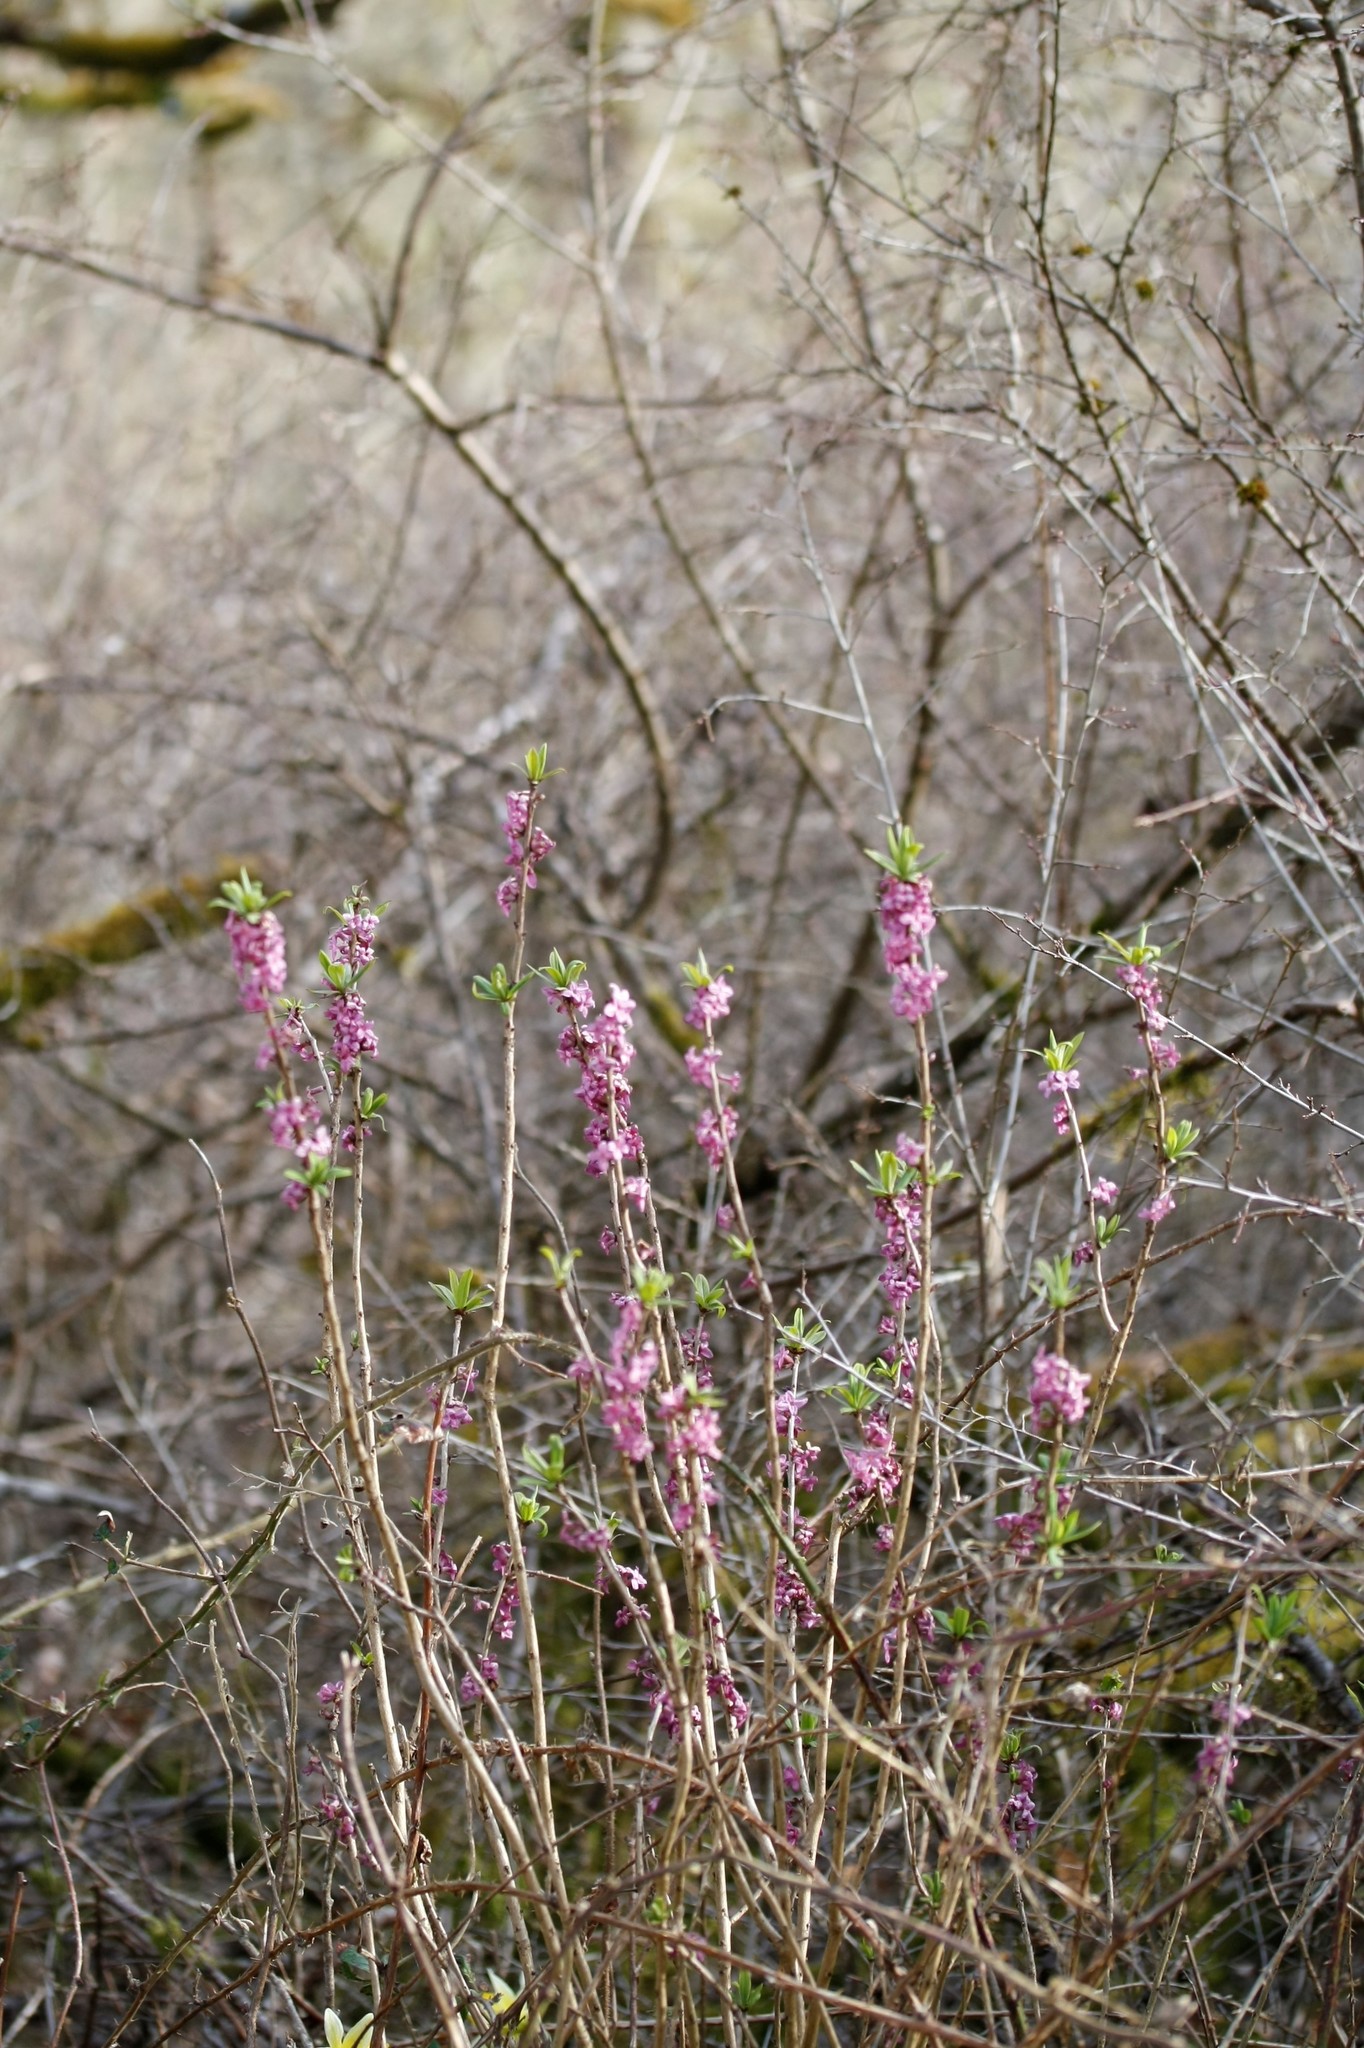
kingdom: Plantae
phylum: Tracheophyta
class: Magnoliopsida
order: Malvales
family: Thymelaeaceae
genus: Daphne
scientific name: Daphne mezereum
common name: Mezereon
